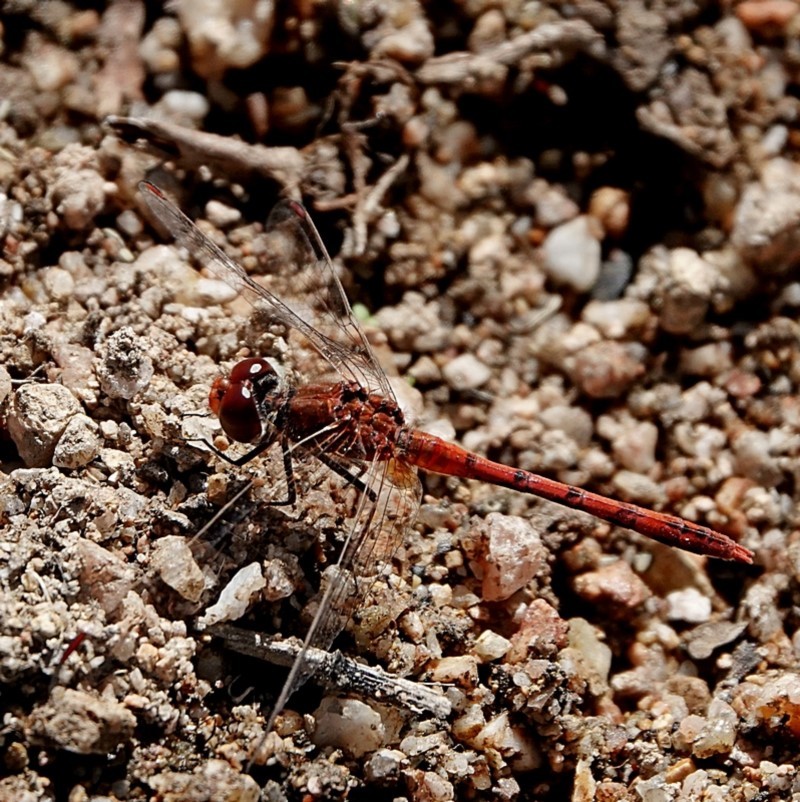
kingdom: Animalia
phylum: Arthropoda
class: Insecta
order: Odonata
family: Libellulidae
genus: Diplacodes
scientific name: Diplacodes bipunctata
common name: Red percher dragonfly
